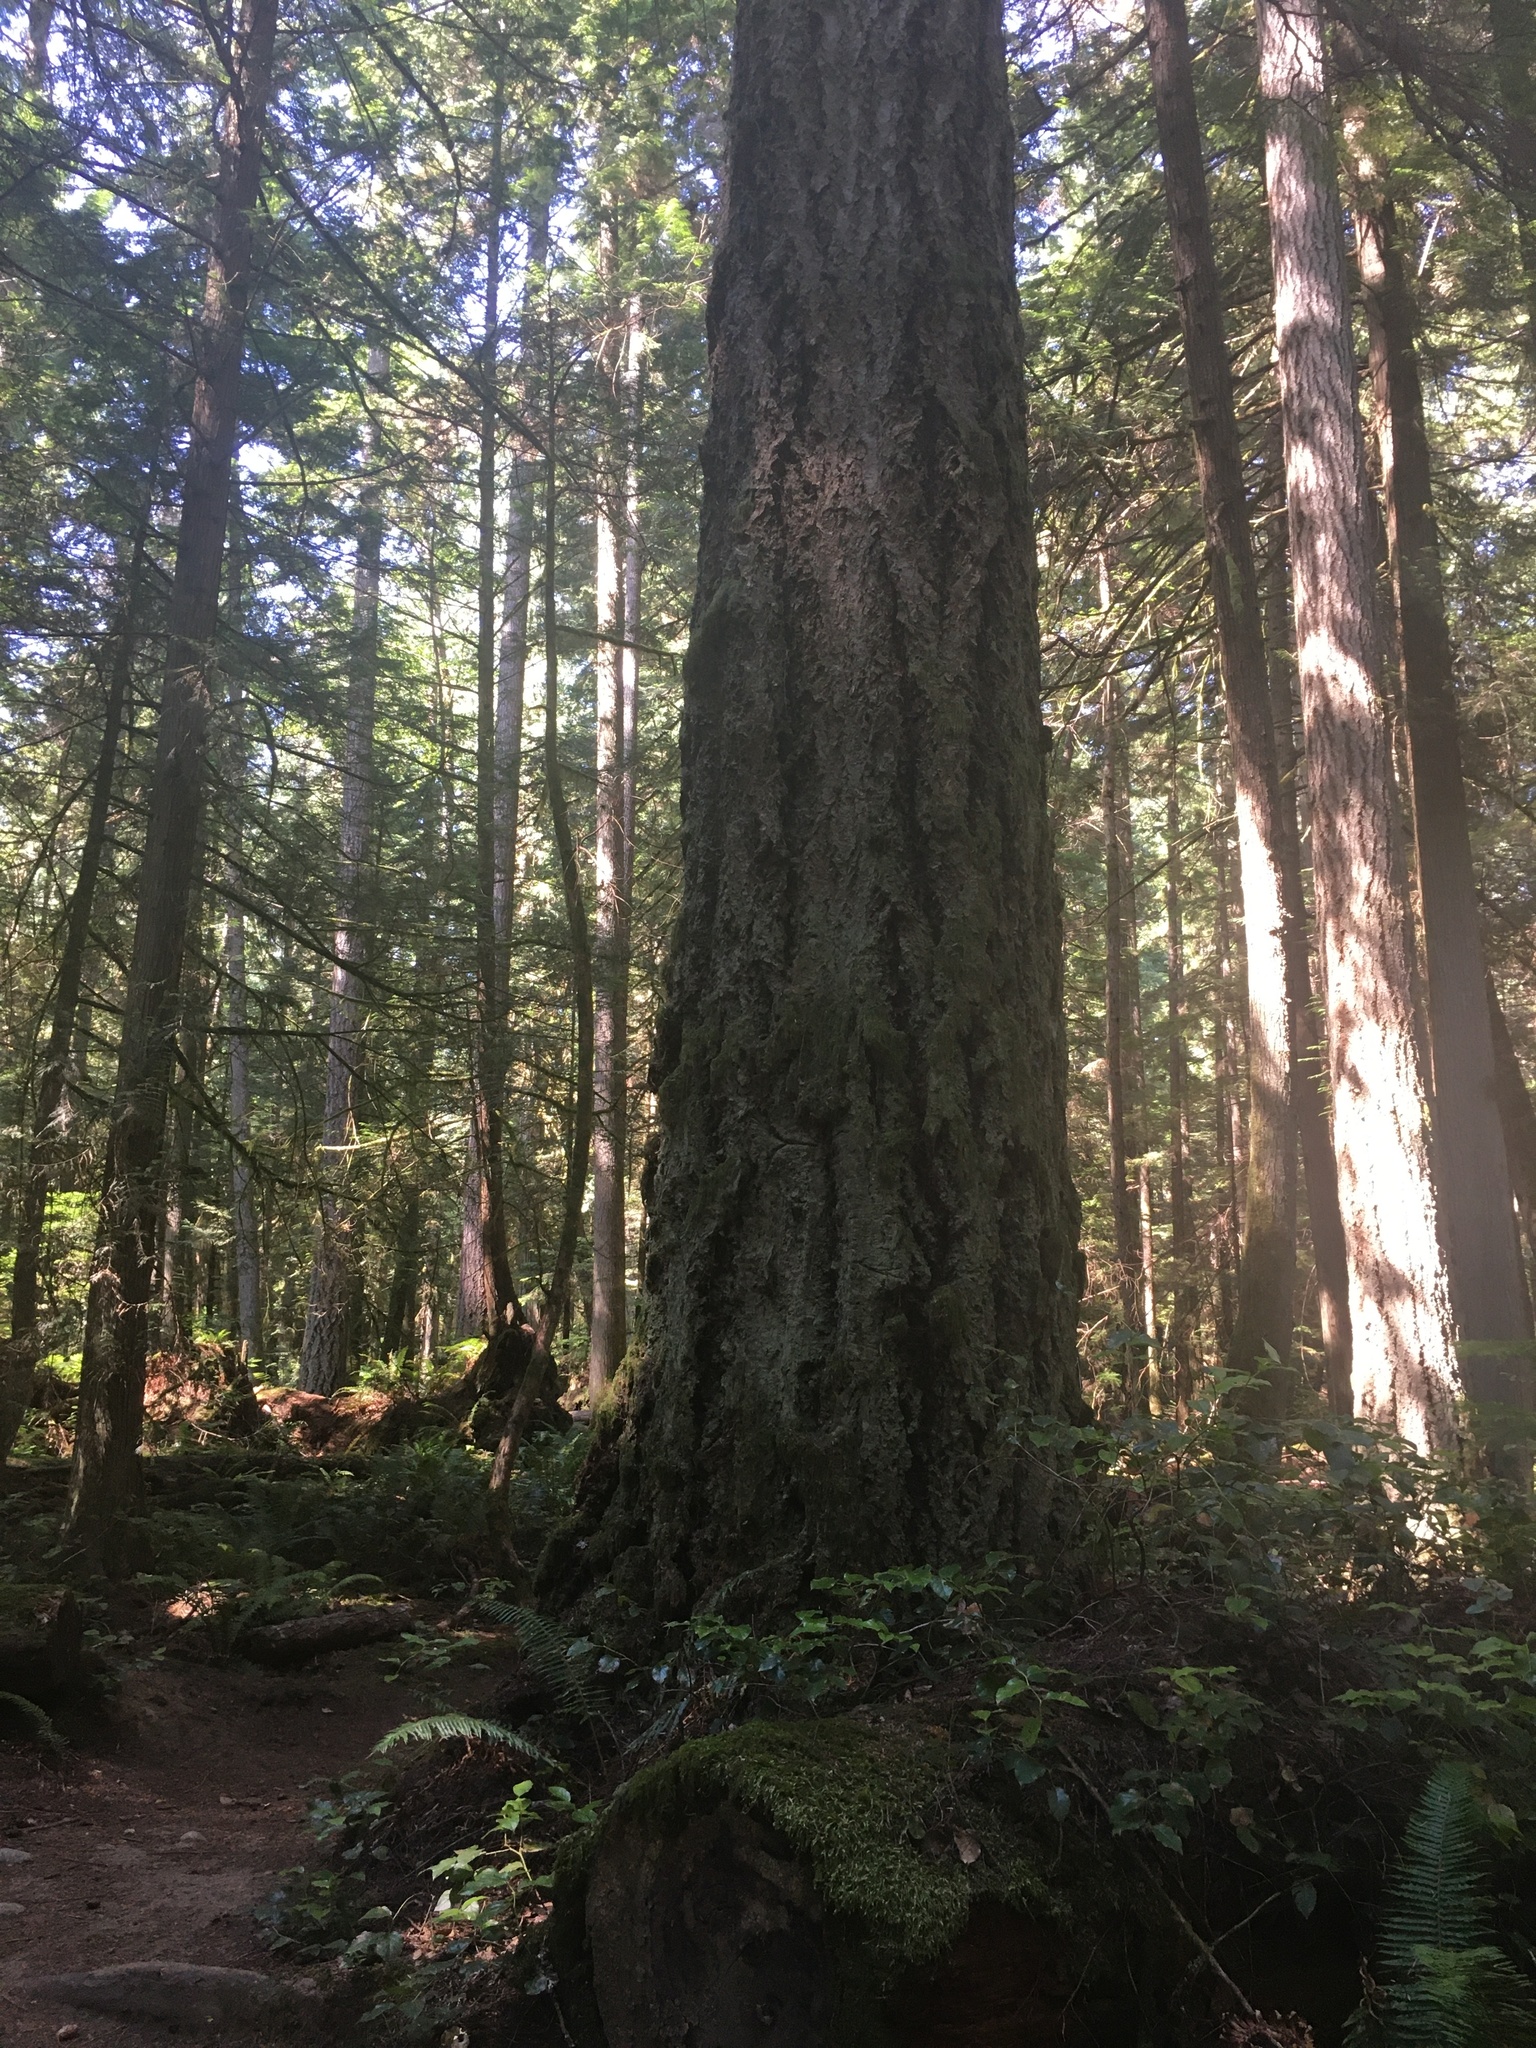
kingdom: Plantae
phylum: Tracheophyta
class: Pinopsida
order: Pinales
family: Pinaceae
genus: Pseudotsuga
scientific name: Pseudotsuga menziesii
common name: Douglas fir
